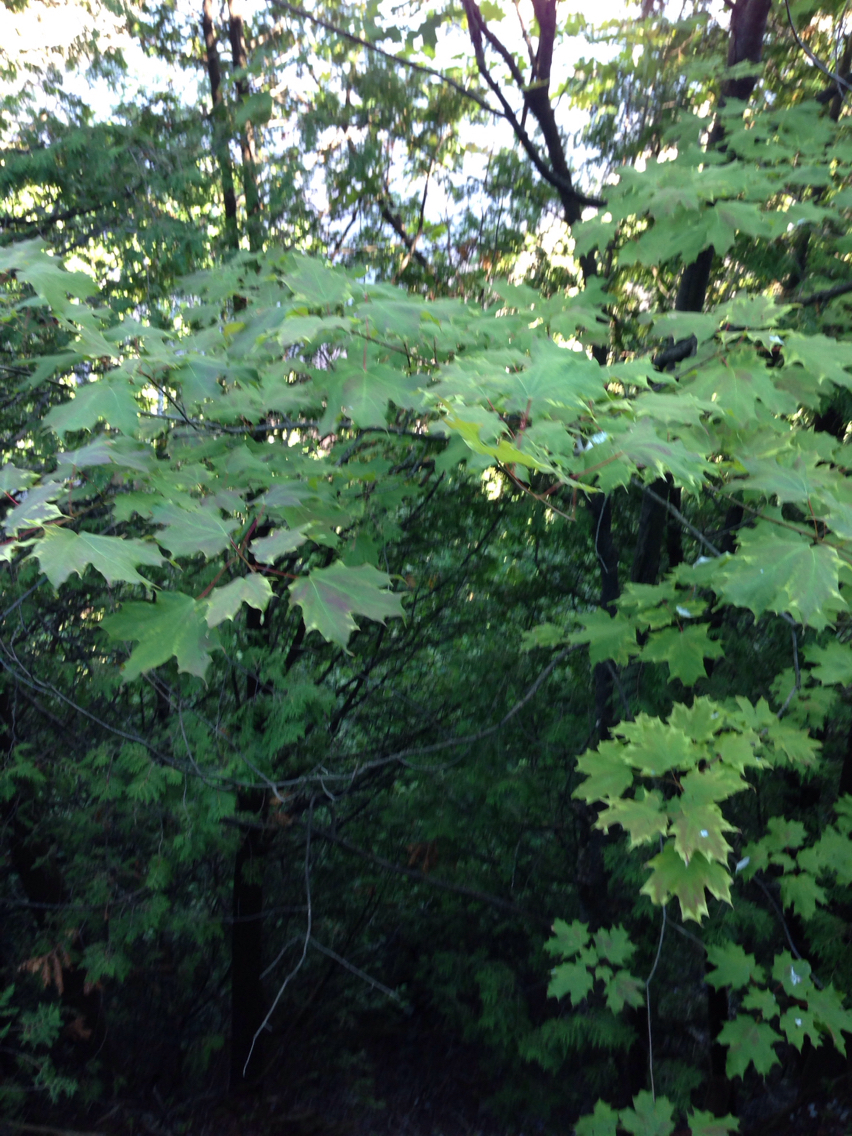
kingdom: Plantae
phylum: Tracheophyta
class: Magnoliopsida
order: Sapindales
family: Sapindaceae
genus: Acer
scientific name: Acer saccharum
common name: Sugar maple
